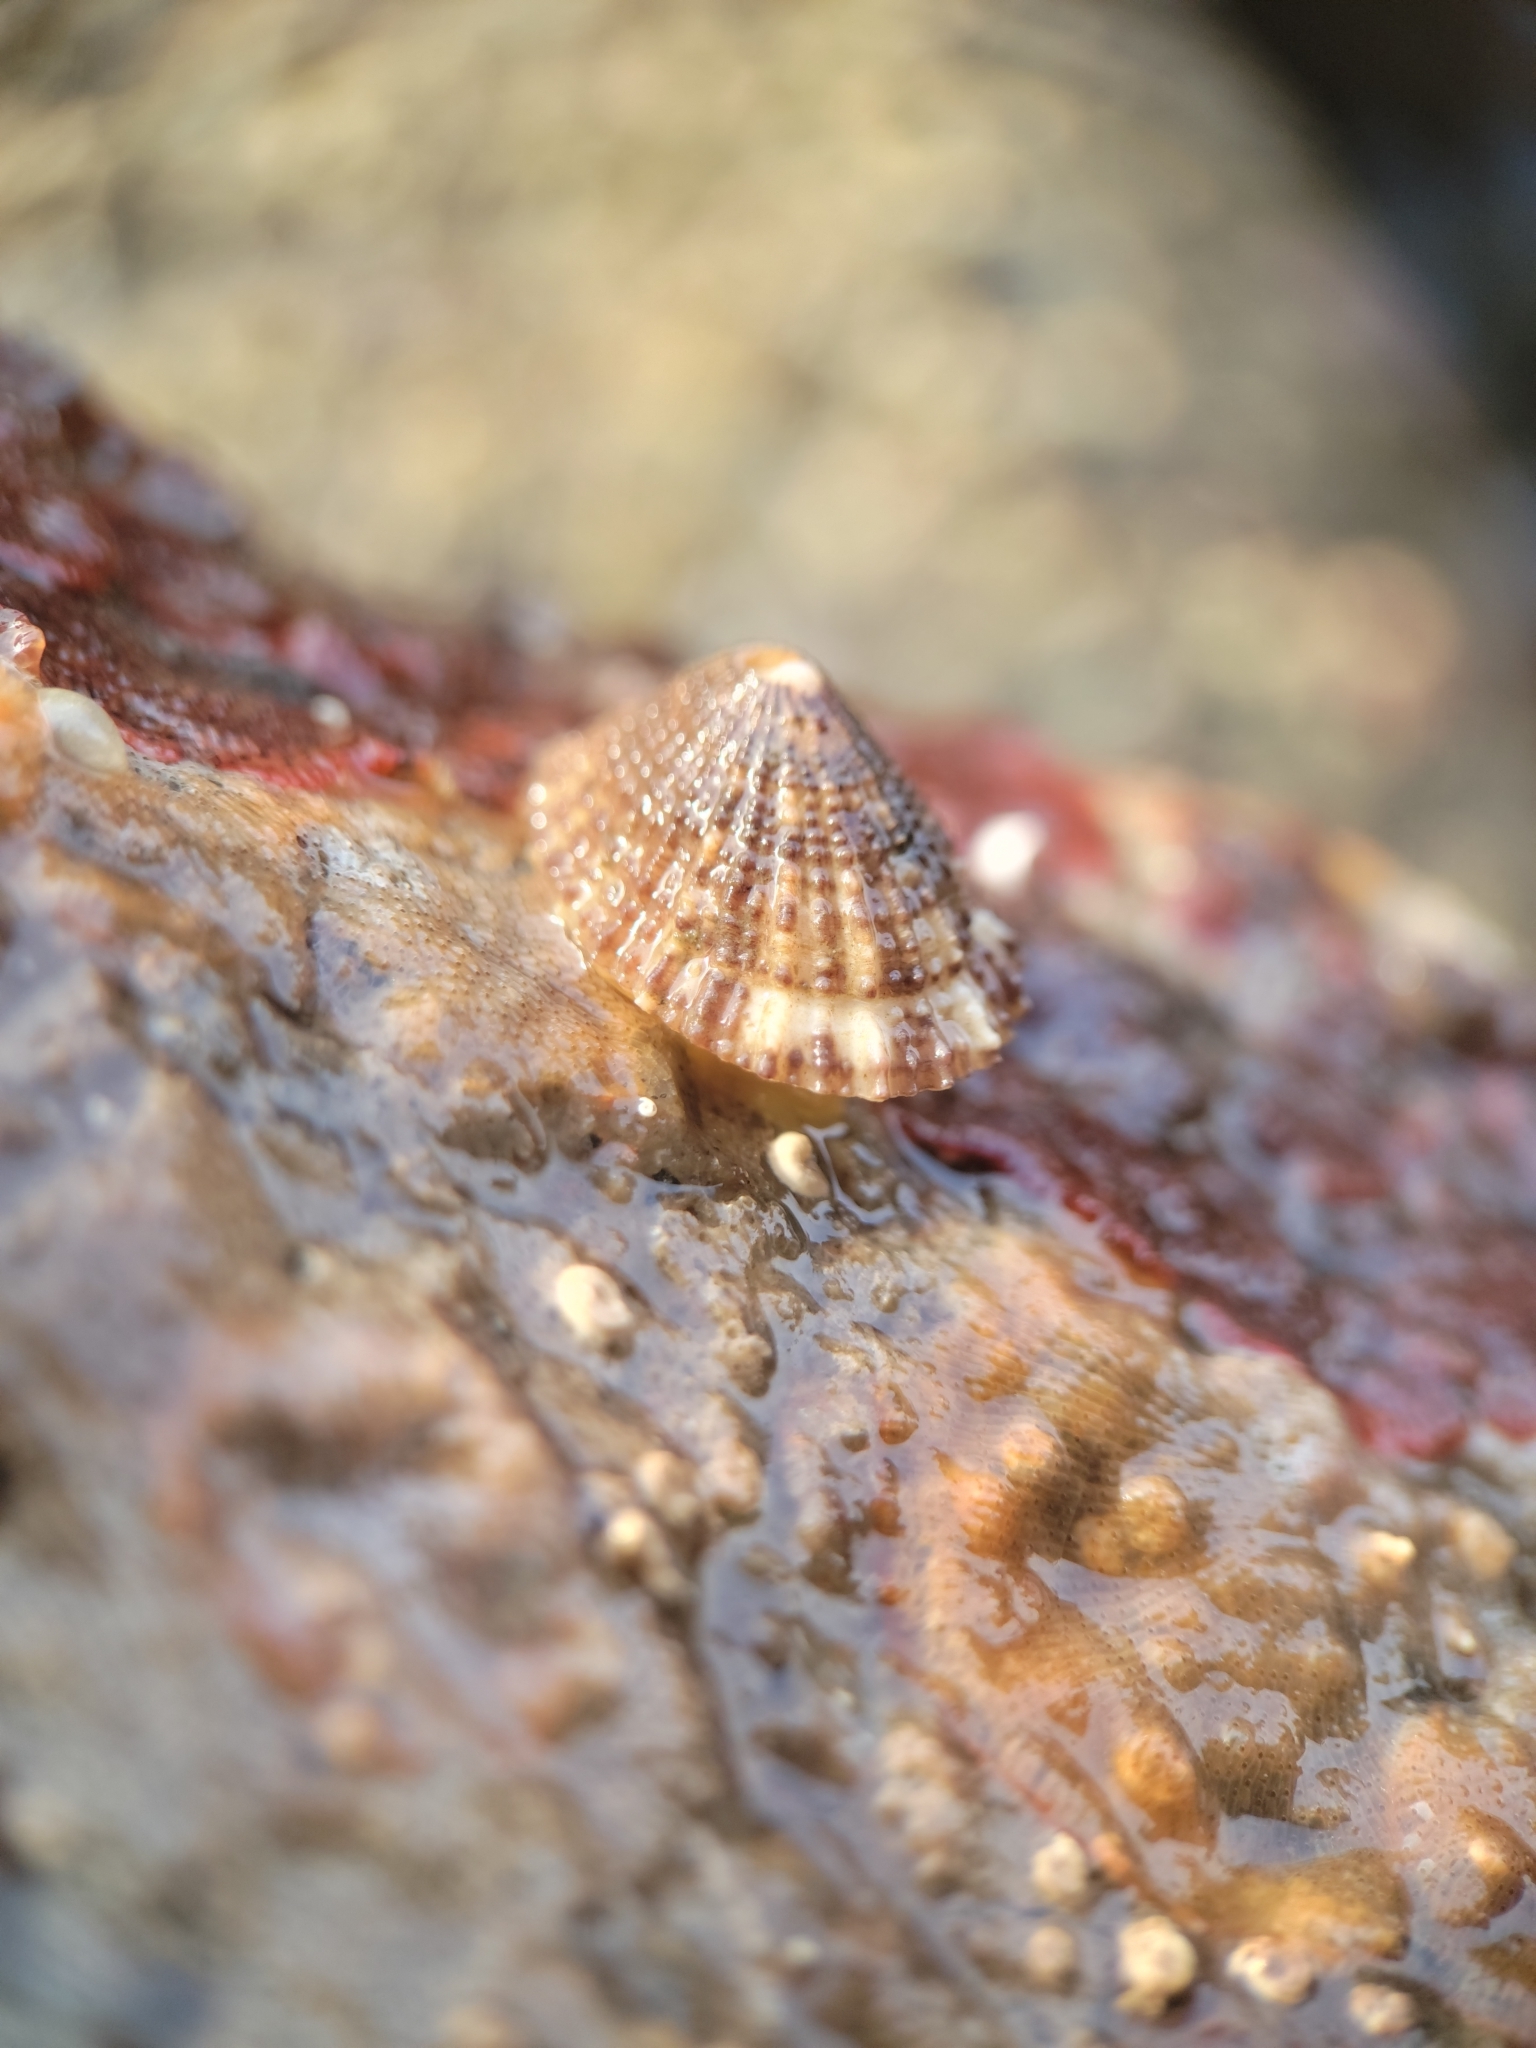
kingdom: Animalia
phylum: Mollusca
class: Gastropoda
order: Lepetellida
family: Fissurellidae
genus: Diodora
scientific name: Diodora aspera
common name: Rough keyhole limpet
